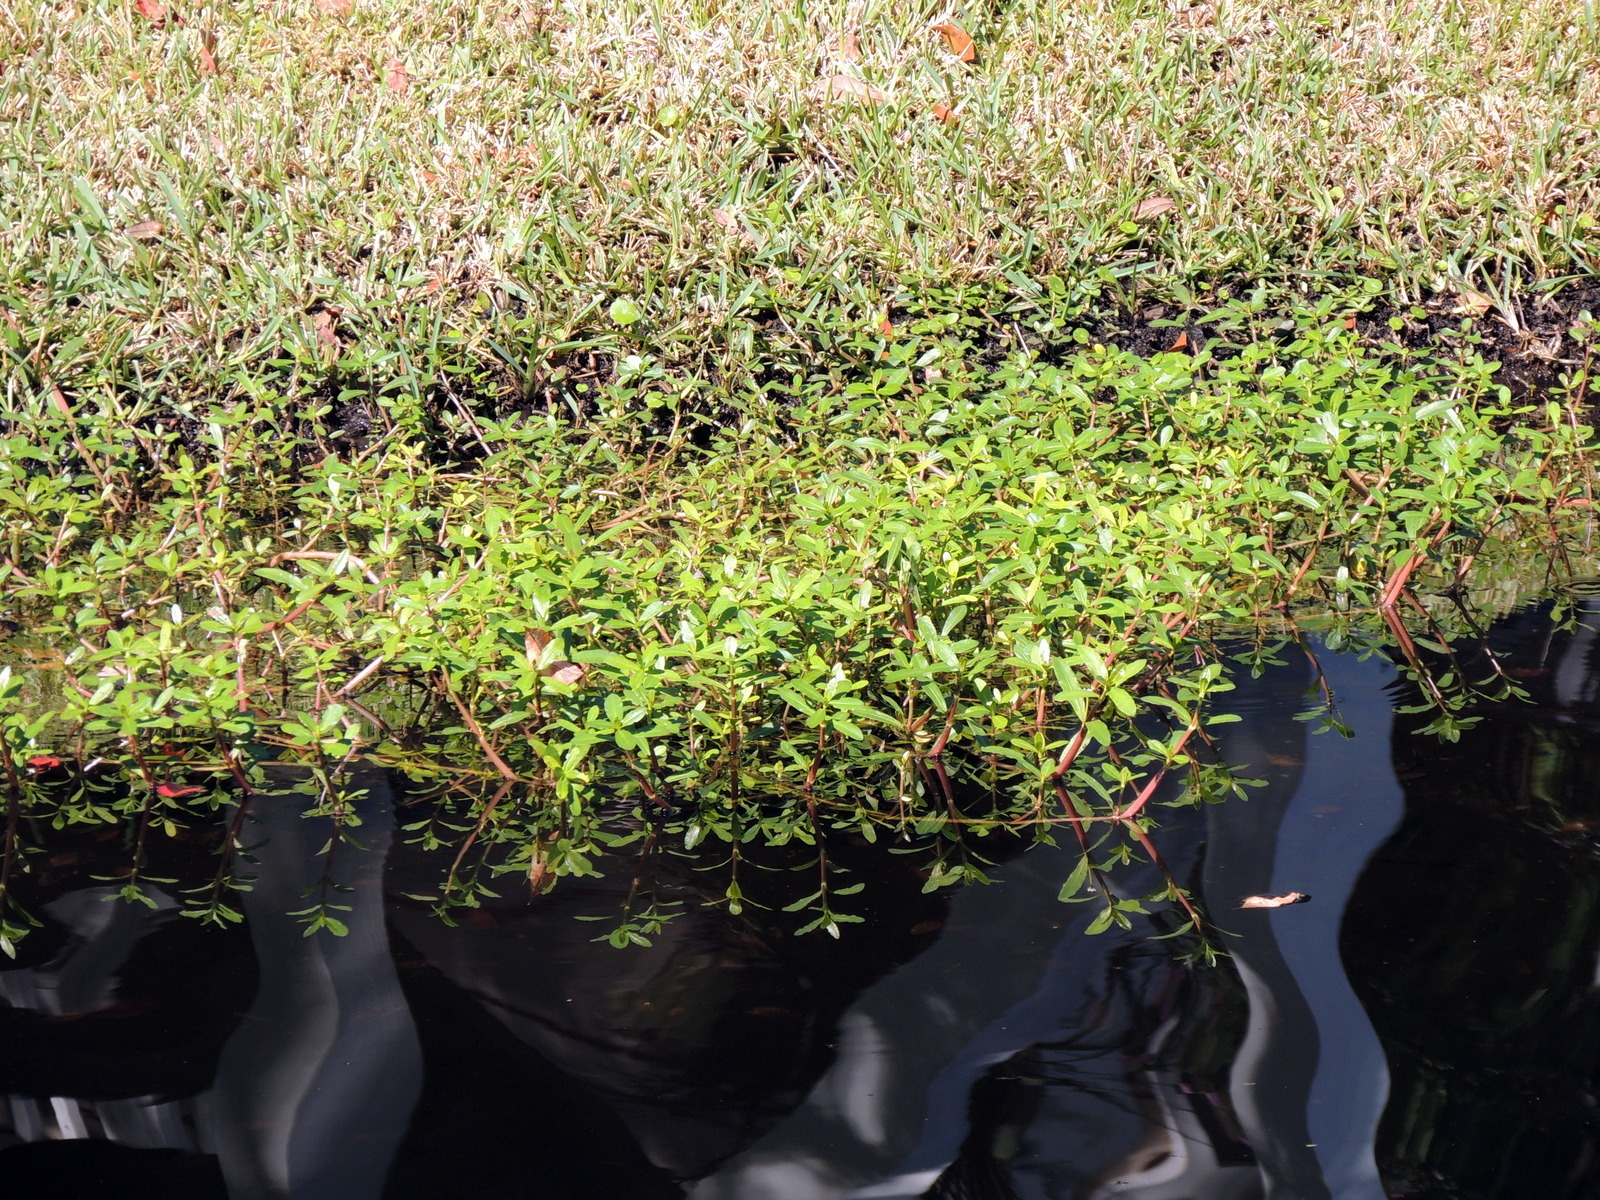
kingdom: Plantae
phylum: Tracheophyta
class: Magnoliopsida
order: Caryophyllales
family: Amaranthaceae
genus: Alternanthera
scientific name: Alternanthera philoxeroides
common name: Alligatorweed
